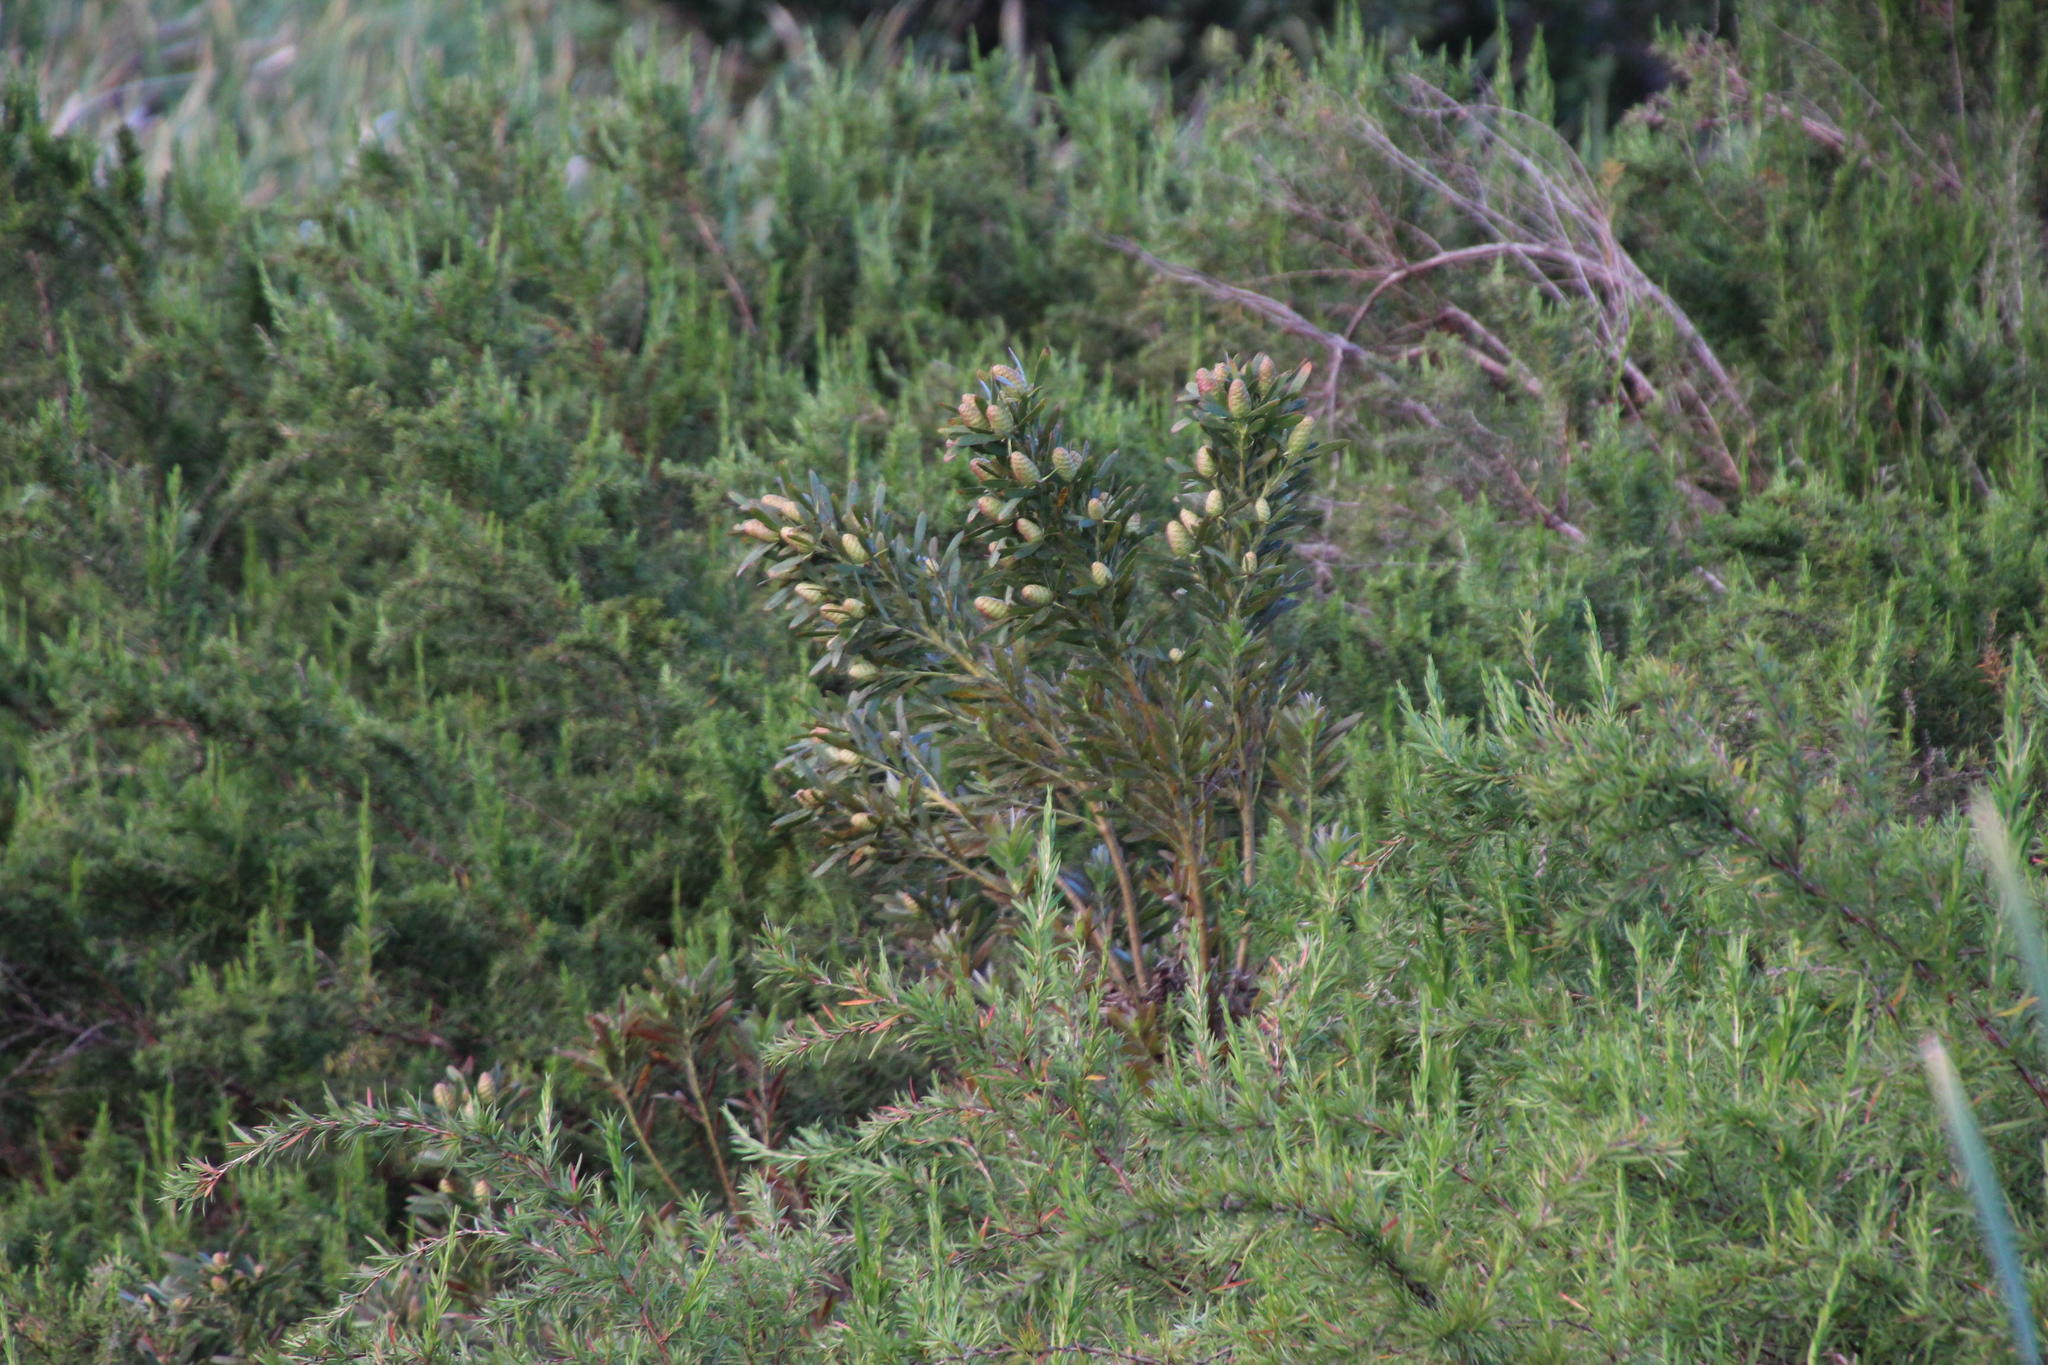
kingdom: Plantae
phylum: Tracheophyta
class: Magnoliopsida
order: Proteales
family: Proteaceae
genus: Leucadendron
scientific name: Leucadendron macowanii
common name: Acacia-leaf conebush
